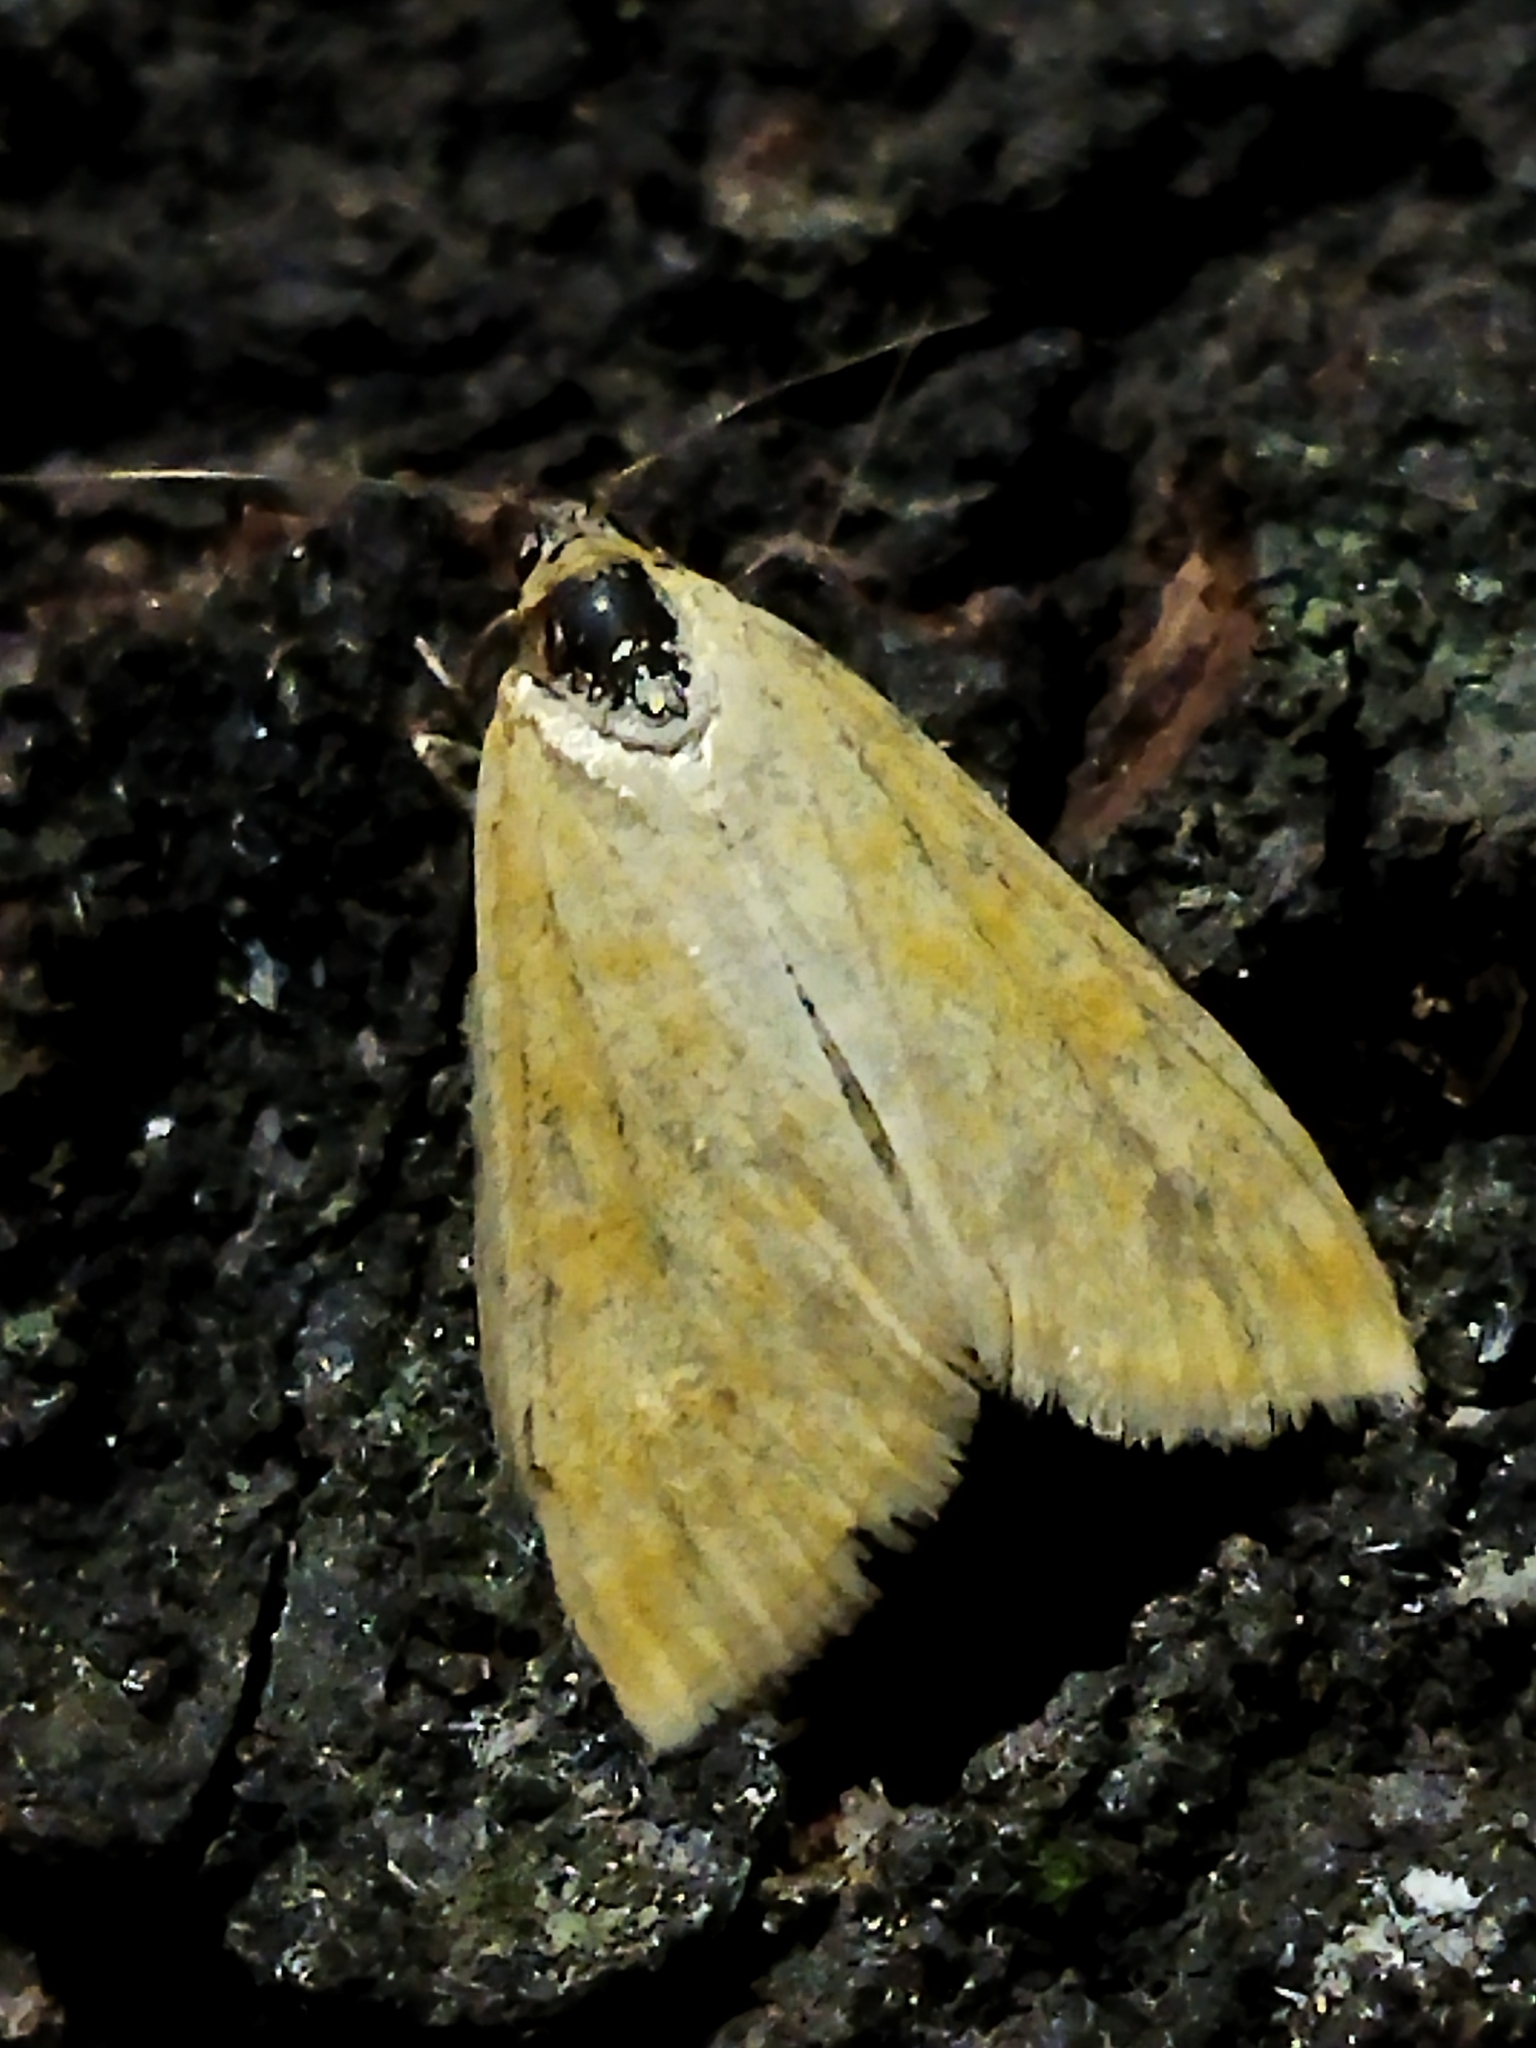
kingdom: Animalia
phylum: Arthropoda
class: Insecta
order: Lepidoptera
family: Crambidae
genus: Sitochroa
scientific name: Sitochroa verticalis
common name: Lesser pearl
